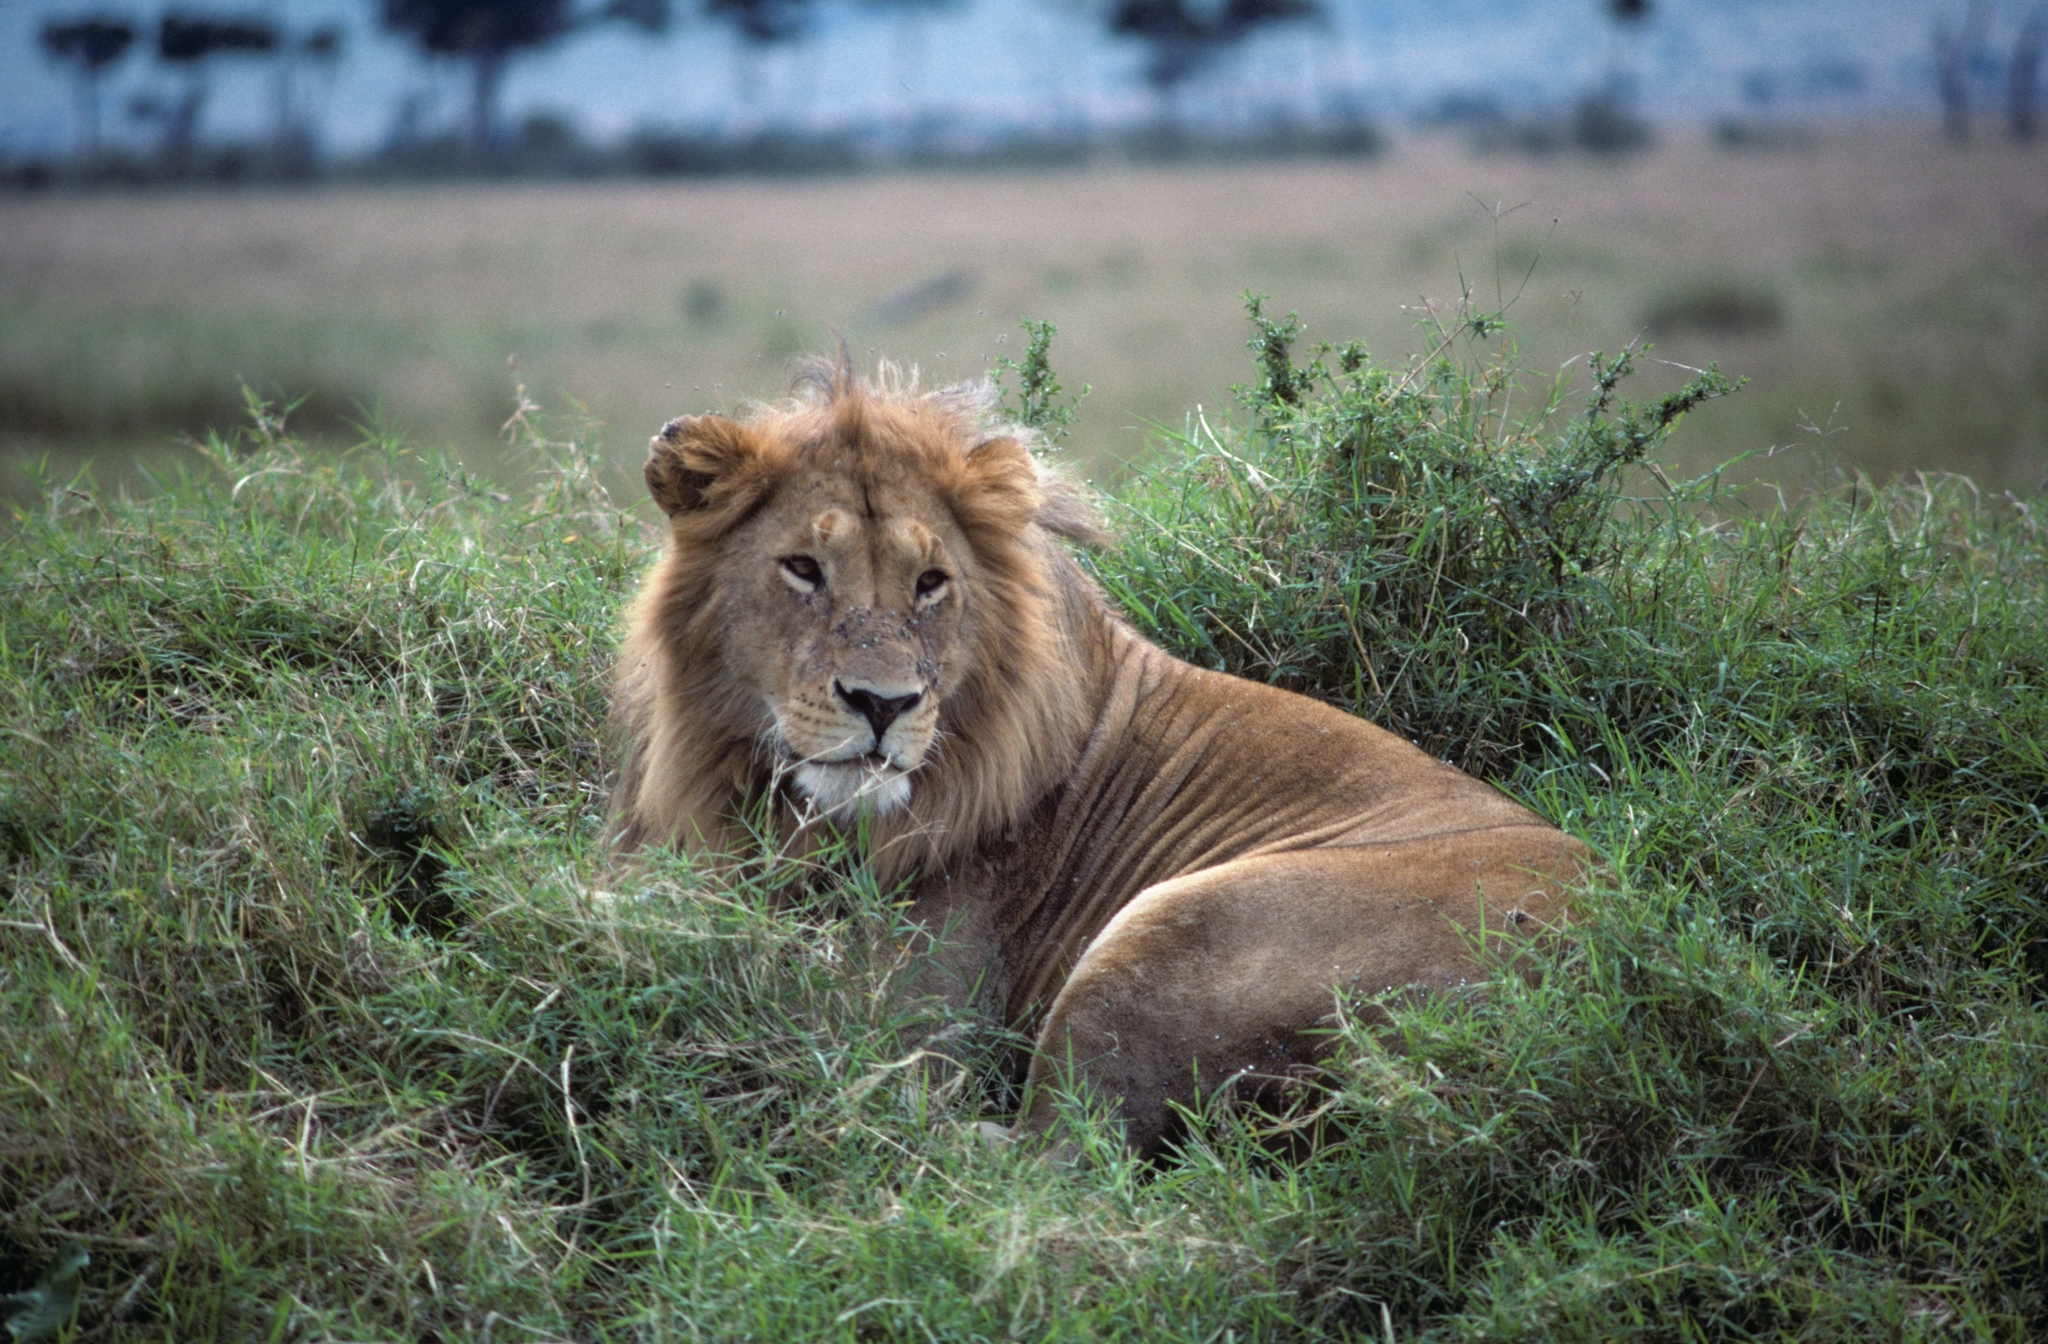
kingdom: Animalia
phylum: Chordata
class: Mammalia
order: Carnivora
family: Felidae
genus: Panthera
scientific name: Panthera leo
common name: Lion
